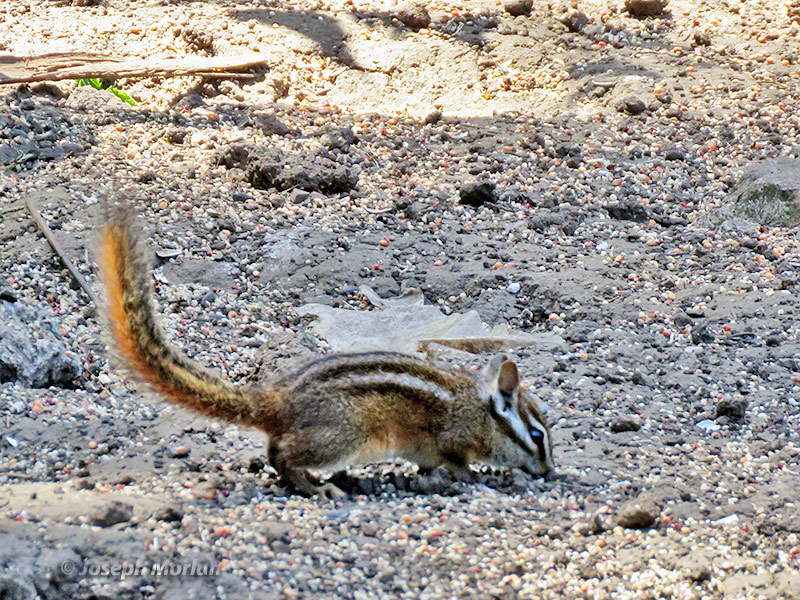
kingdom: Animalia
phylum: Chordata
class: Mammalia
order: Rodentia
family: Sciuridae
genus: Tamias
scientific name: Tamias merriami
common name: Merriam's chipmunk
